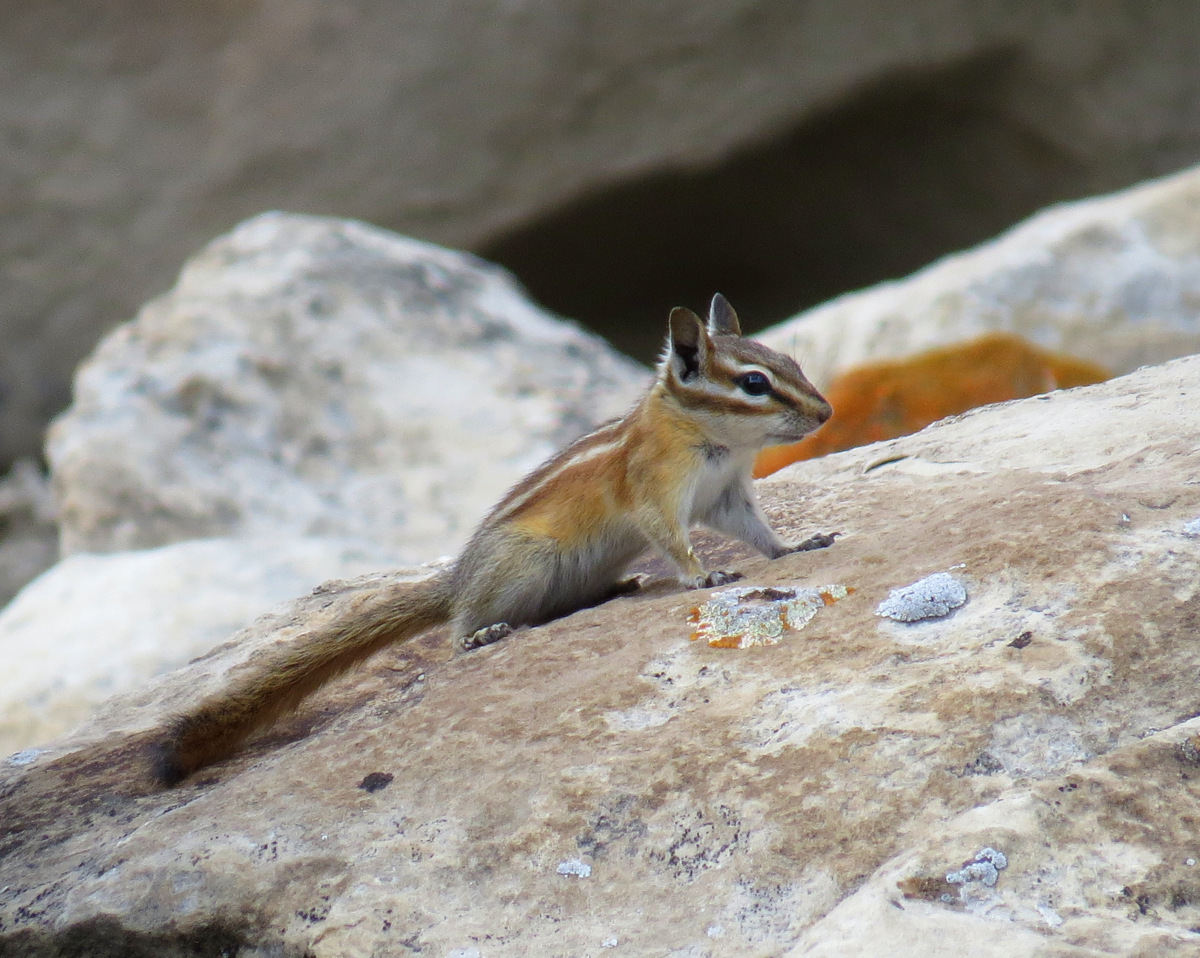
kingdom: Animalia
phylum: Chordata
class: Mammalia
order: Rodentia
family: Sciuridae
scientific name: Sciuridae
